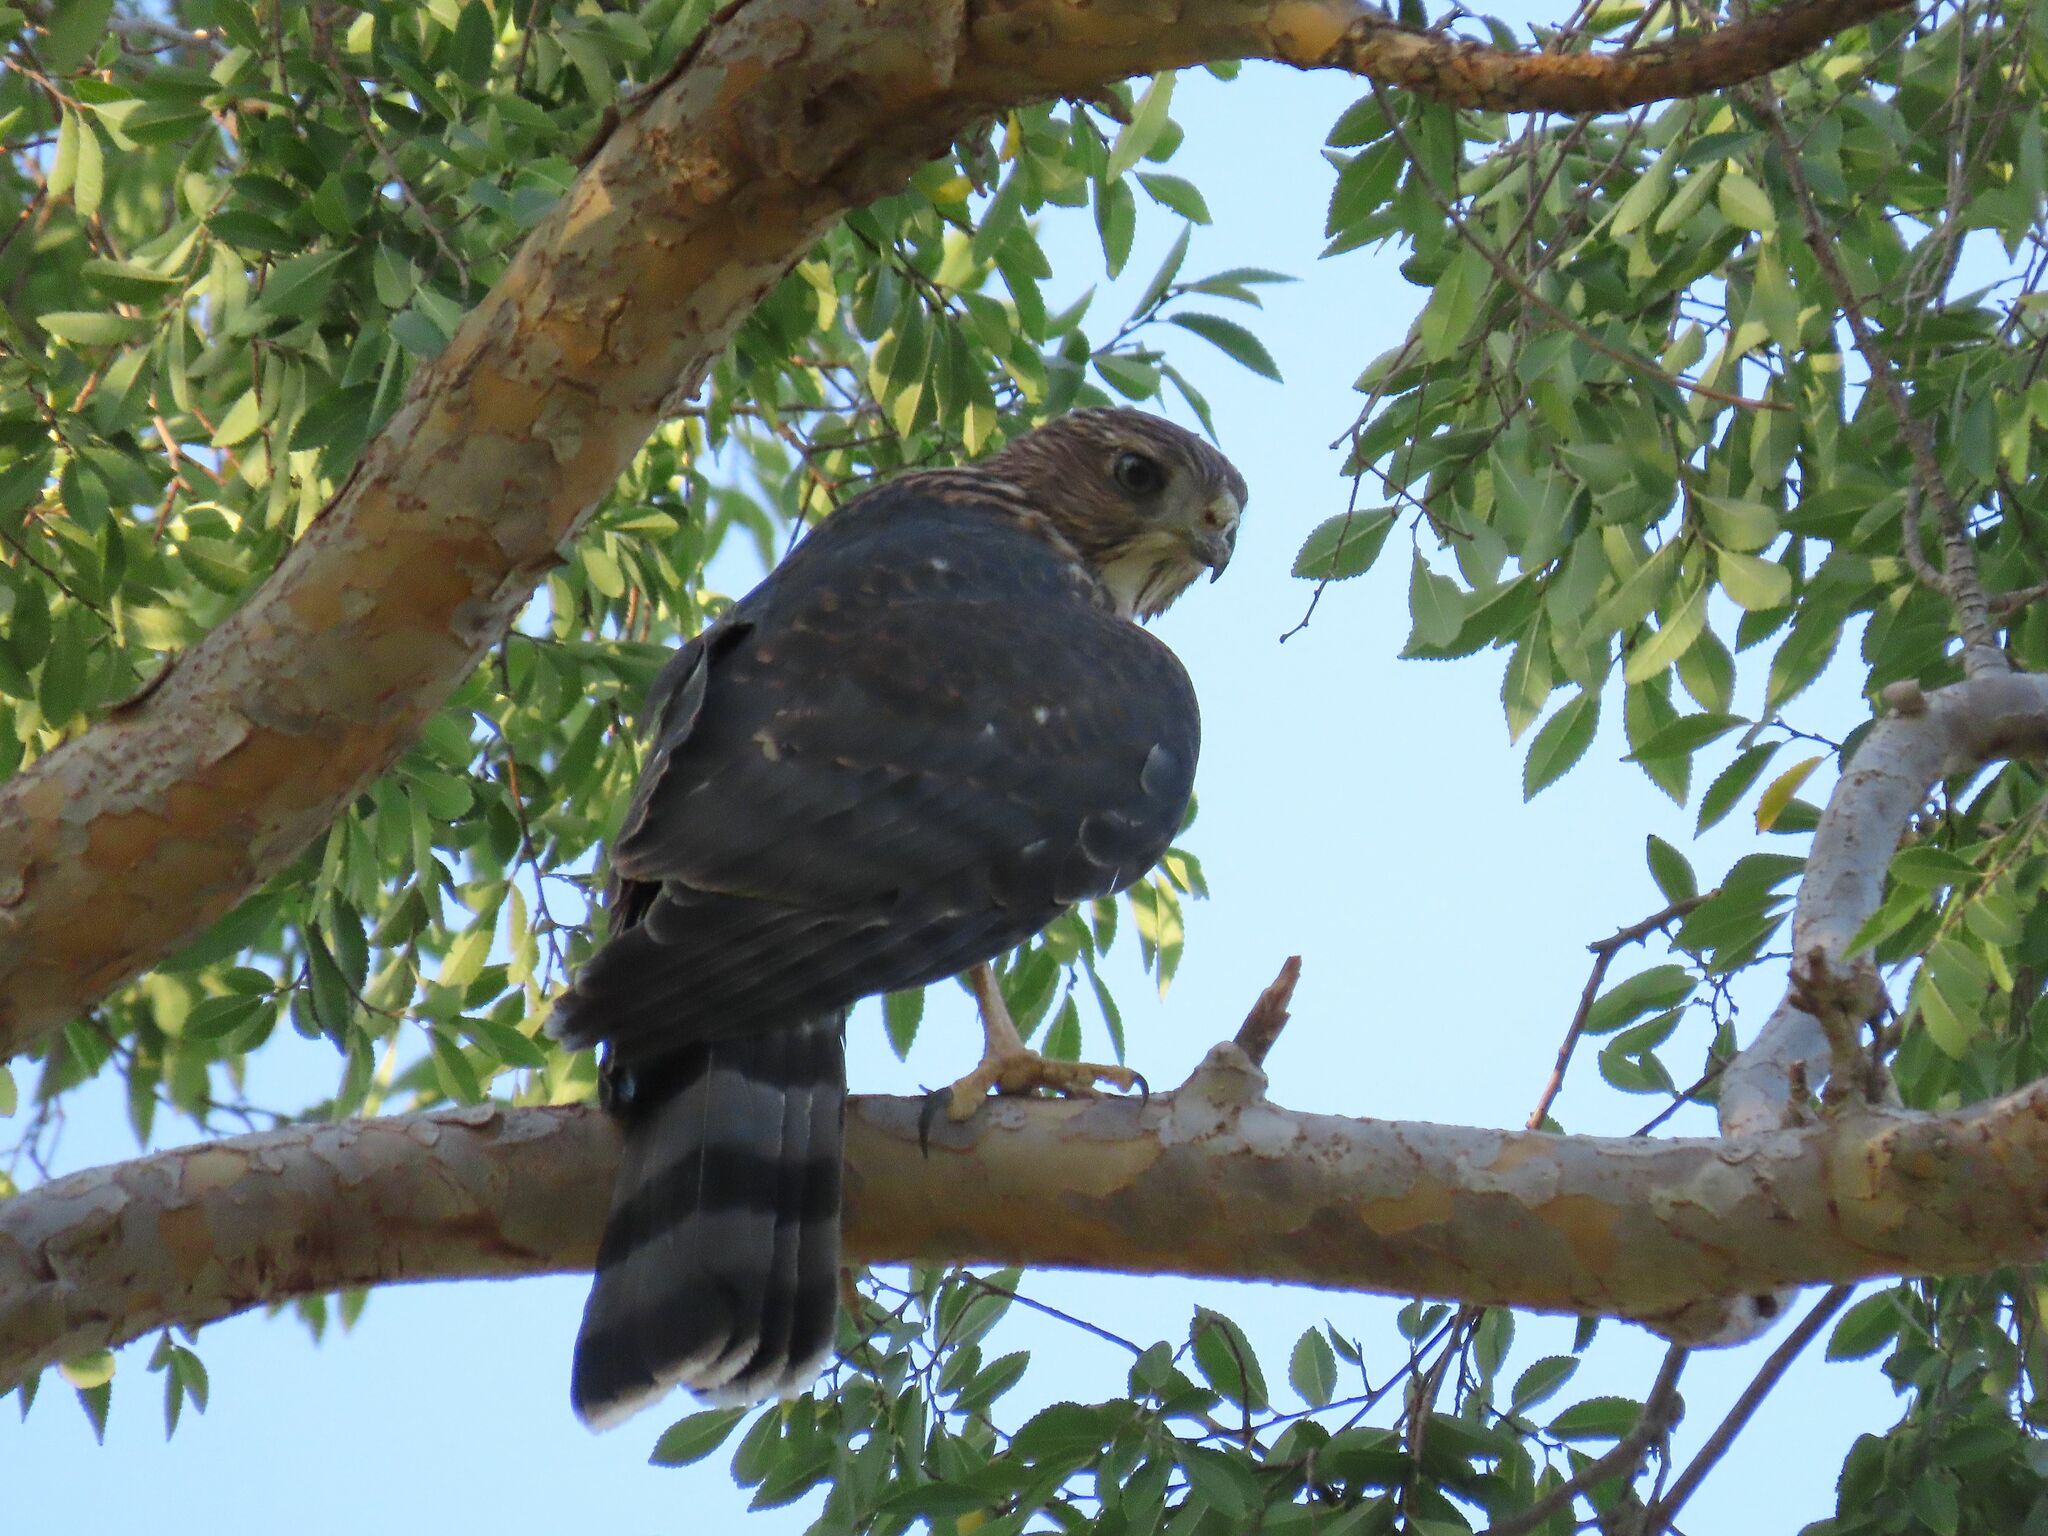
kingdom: Animalia
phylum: Chordata
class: Aves
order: Accipitriformes
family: Accipitridae
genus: Accipiter
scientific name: Accipiter cooperii
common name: Cooper's hawk
